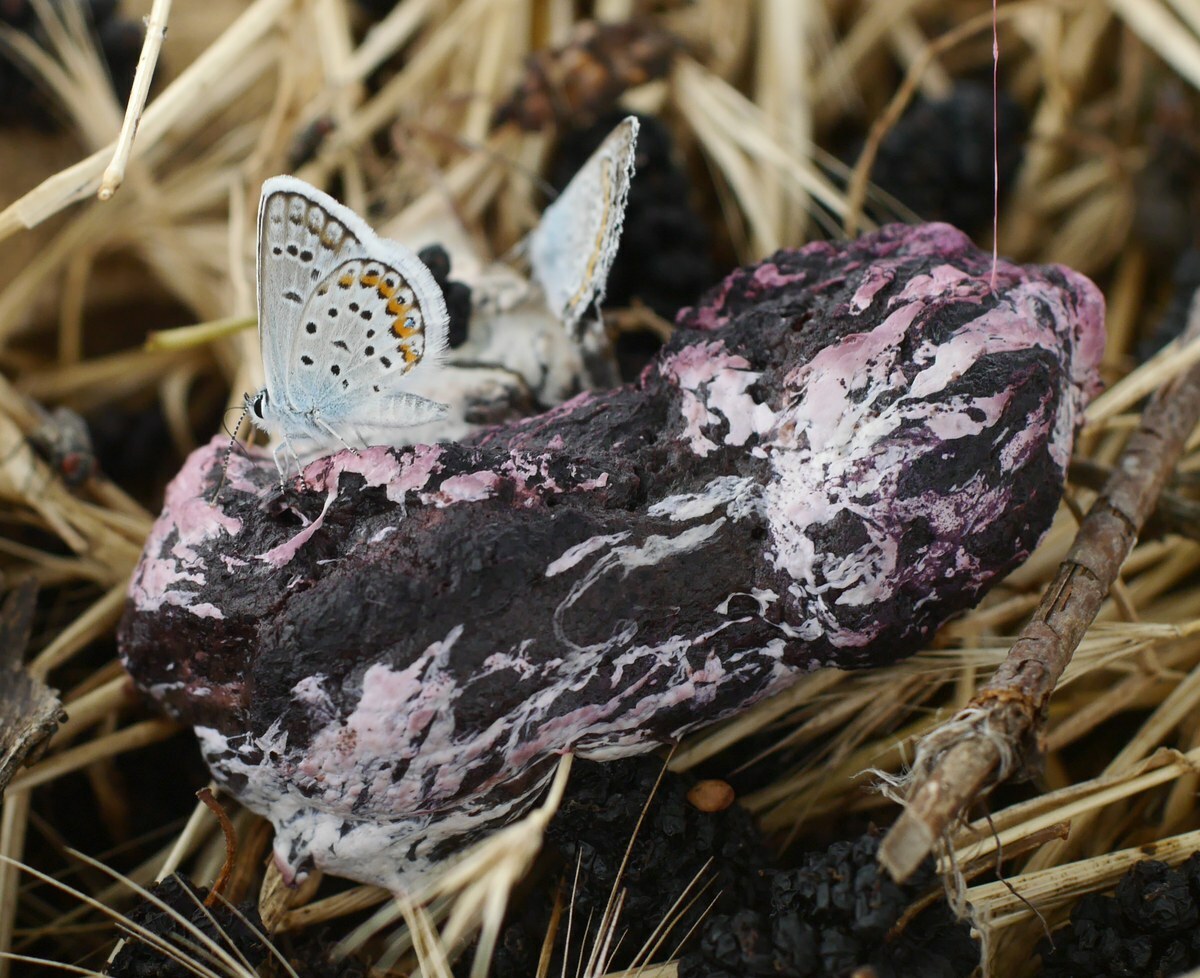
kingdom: Animalia
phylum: Arthropoda
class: Insecta
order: Lepidoptera
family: Lycaenidae
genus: Plebejus
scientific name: Plebejus argus
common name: Silver-studded blue
